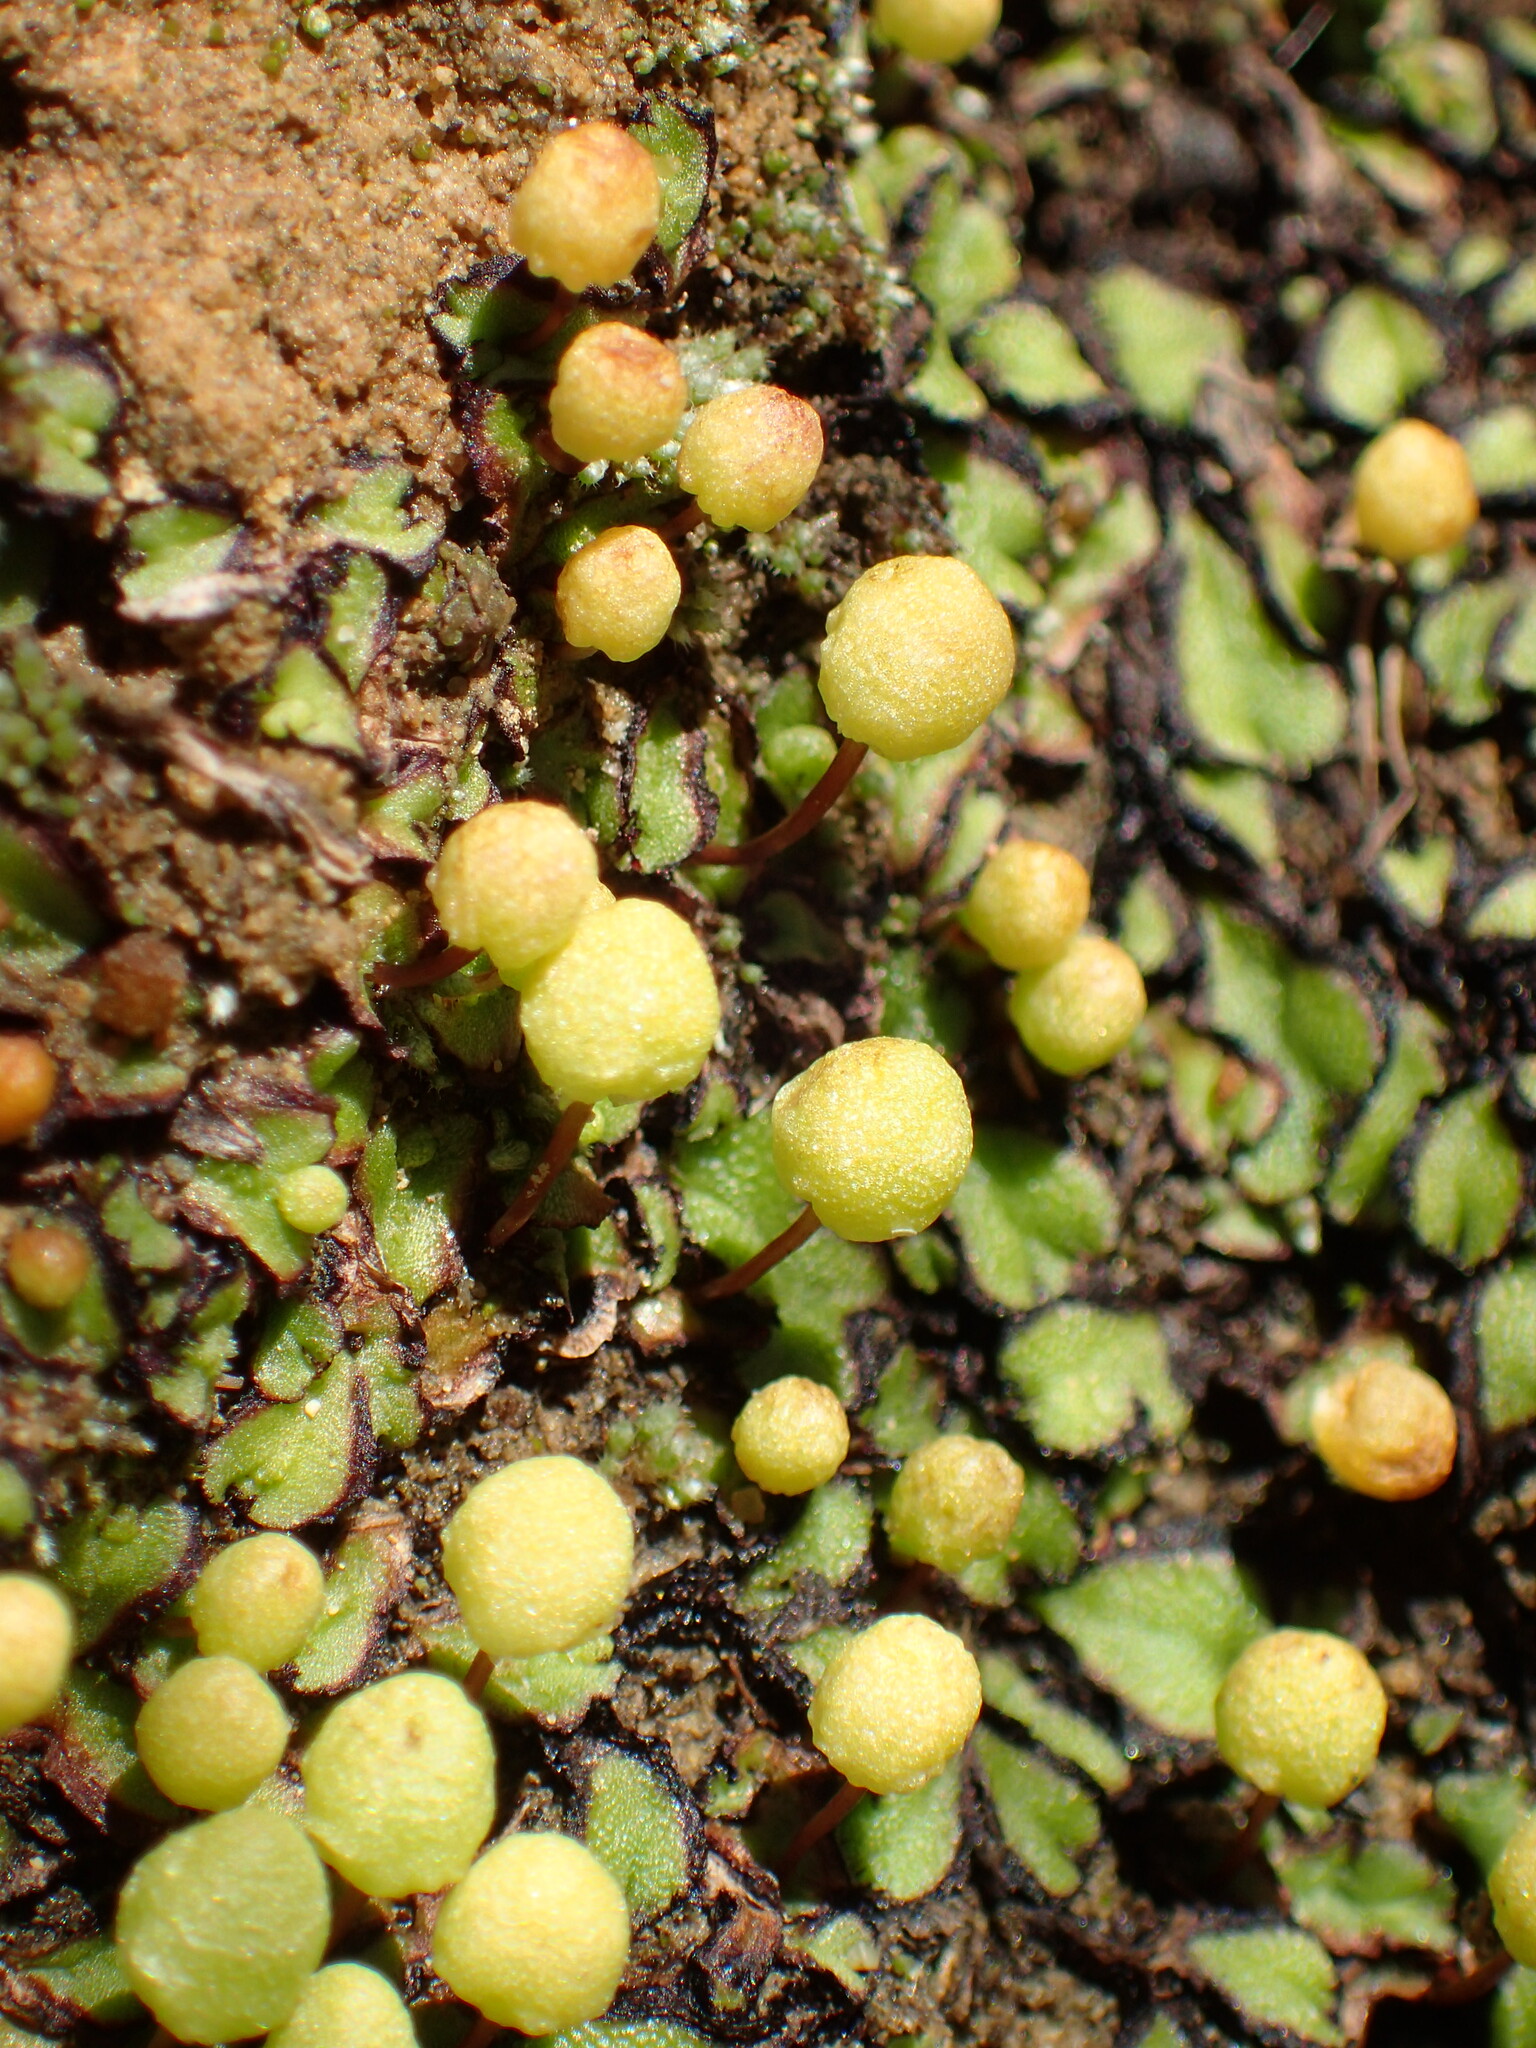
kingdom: Plantae
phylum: Marchantiophyta
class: Marchantiopsida
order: Marchantiales
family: Aytoniaceae
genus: Asterella
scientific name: Asterella palmeri
